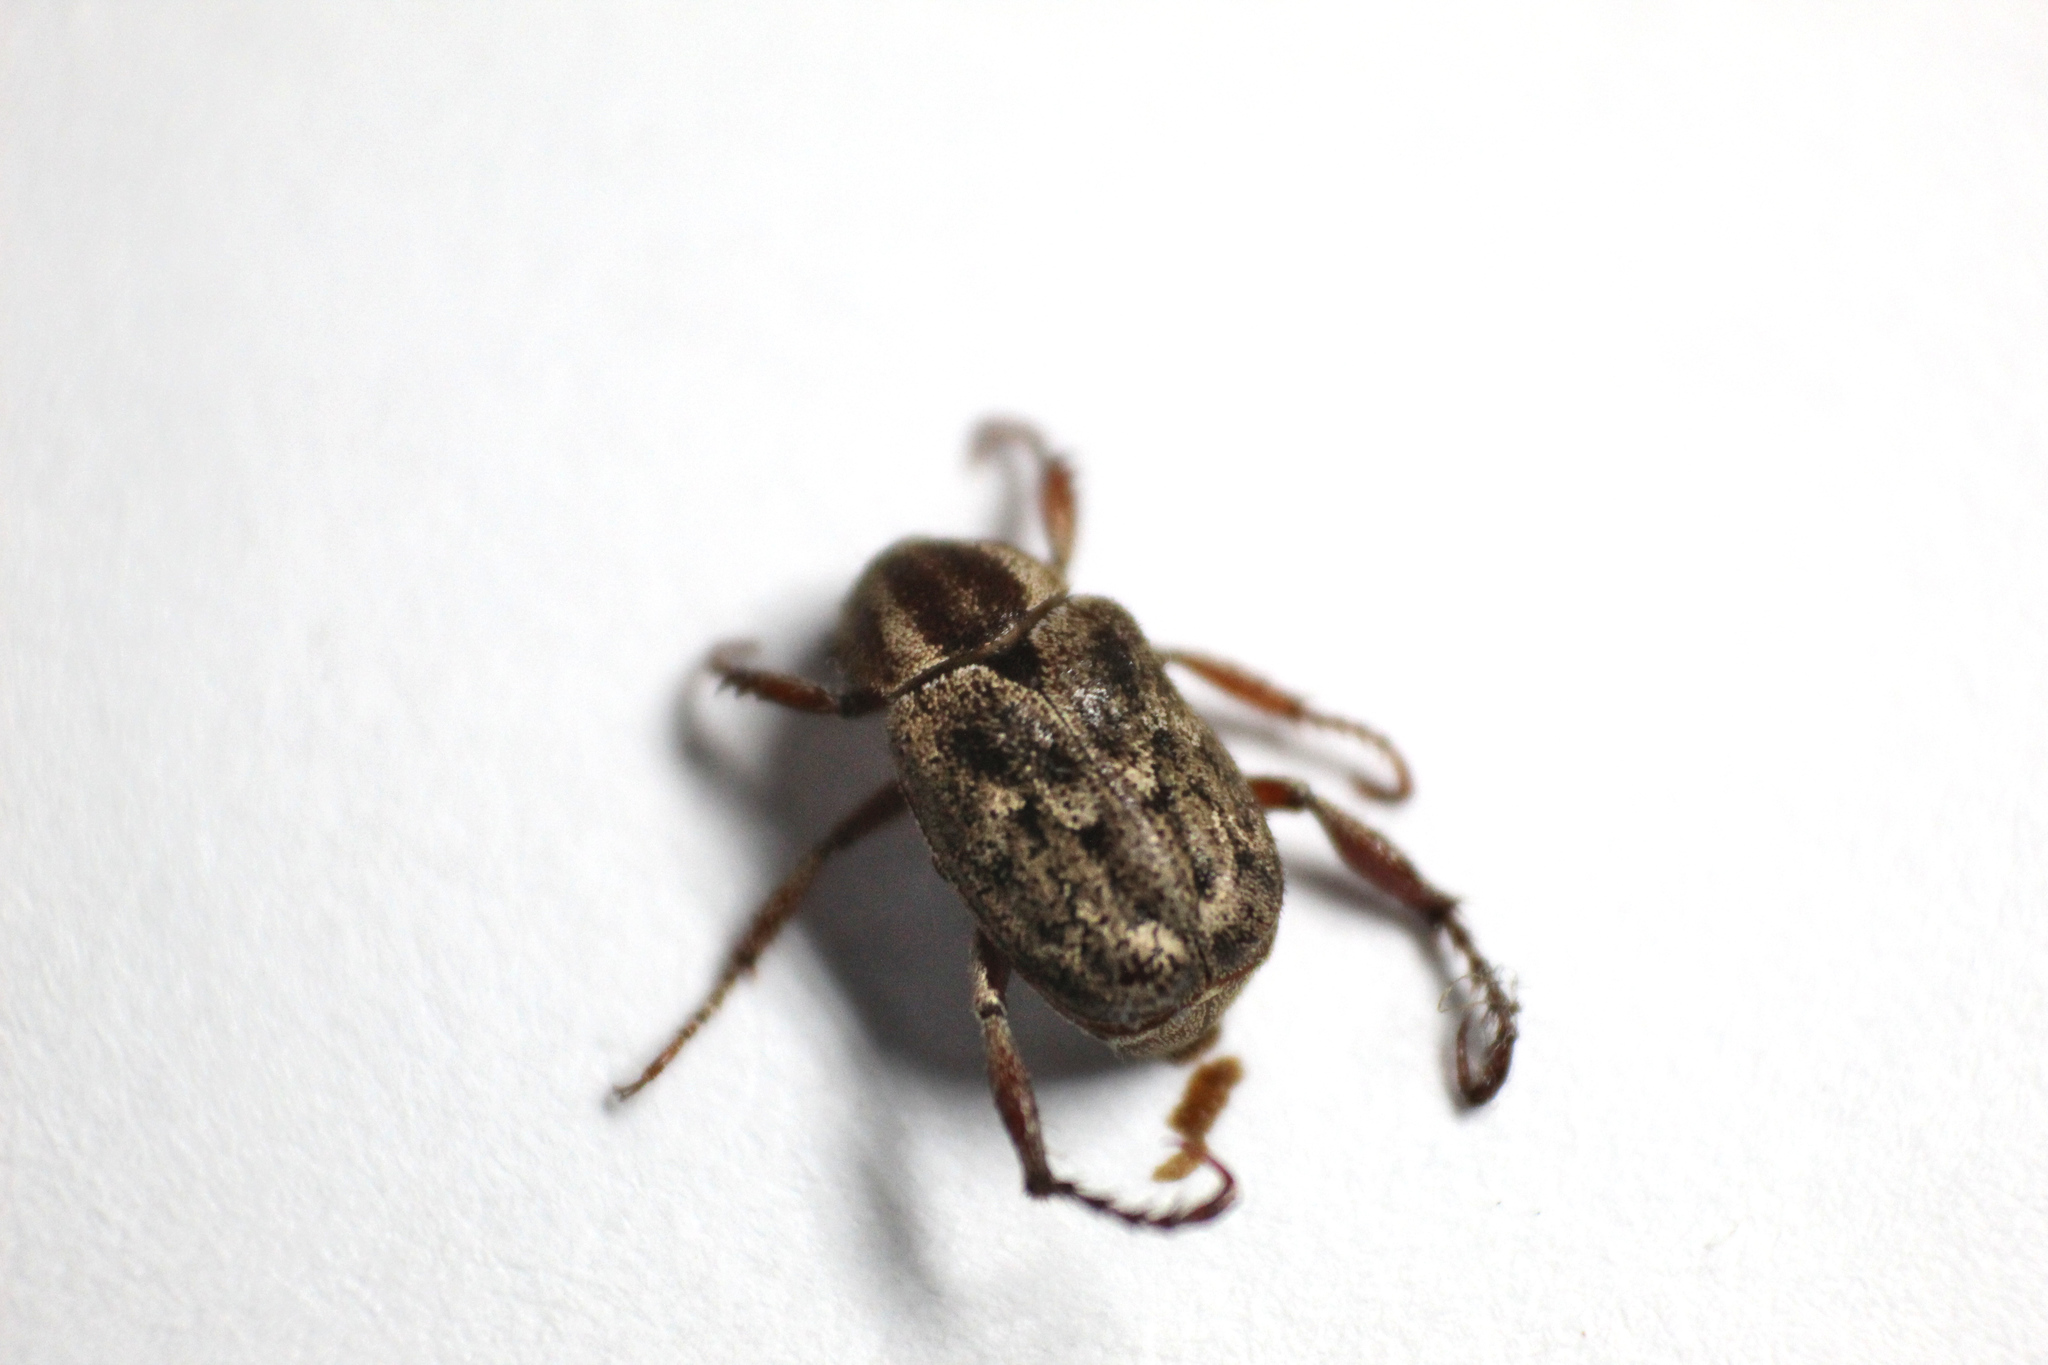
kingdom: Animalia
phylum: Arthropoda
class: Insecta
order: Coleoptera
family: Scarabaeidae
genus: Hoplia
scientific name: Hoplia squamifera
